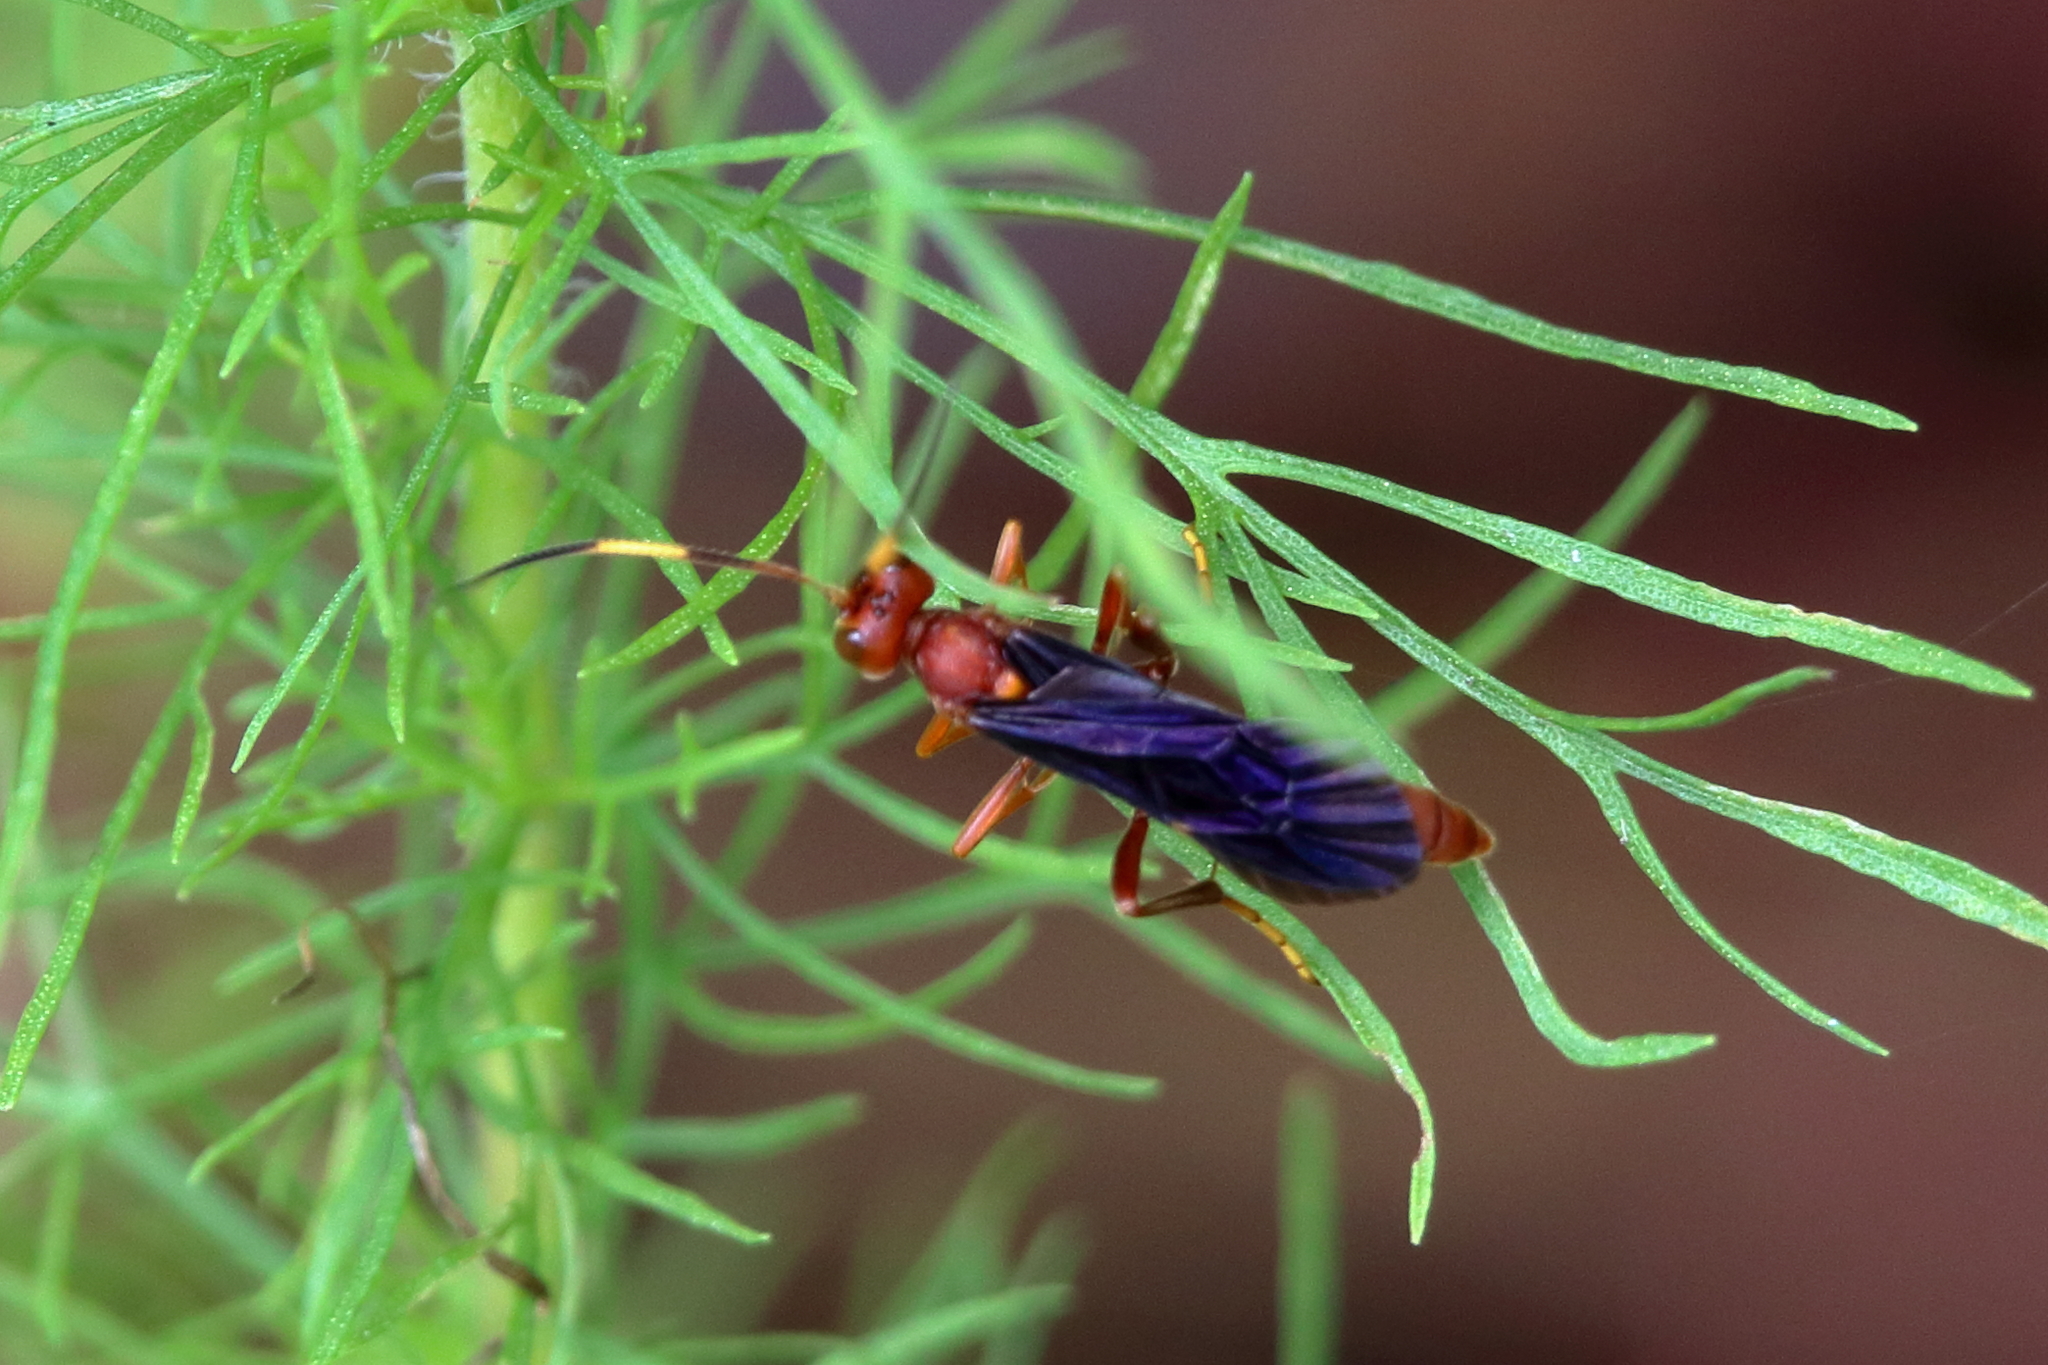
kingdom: Animalia
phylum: Arthropoda
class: Insecta
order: Hymenoptera
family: Ichneumonidae
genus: Trogomorpha
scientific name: Trogomorpha trogiformis
